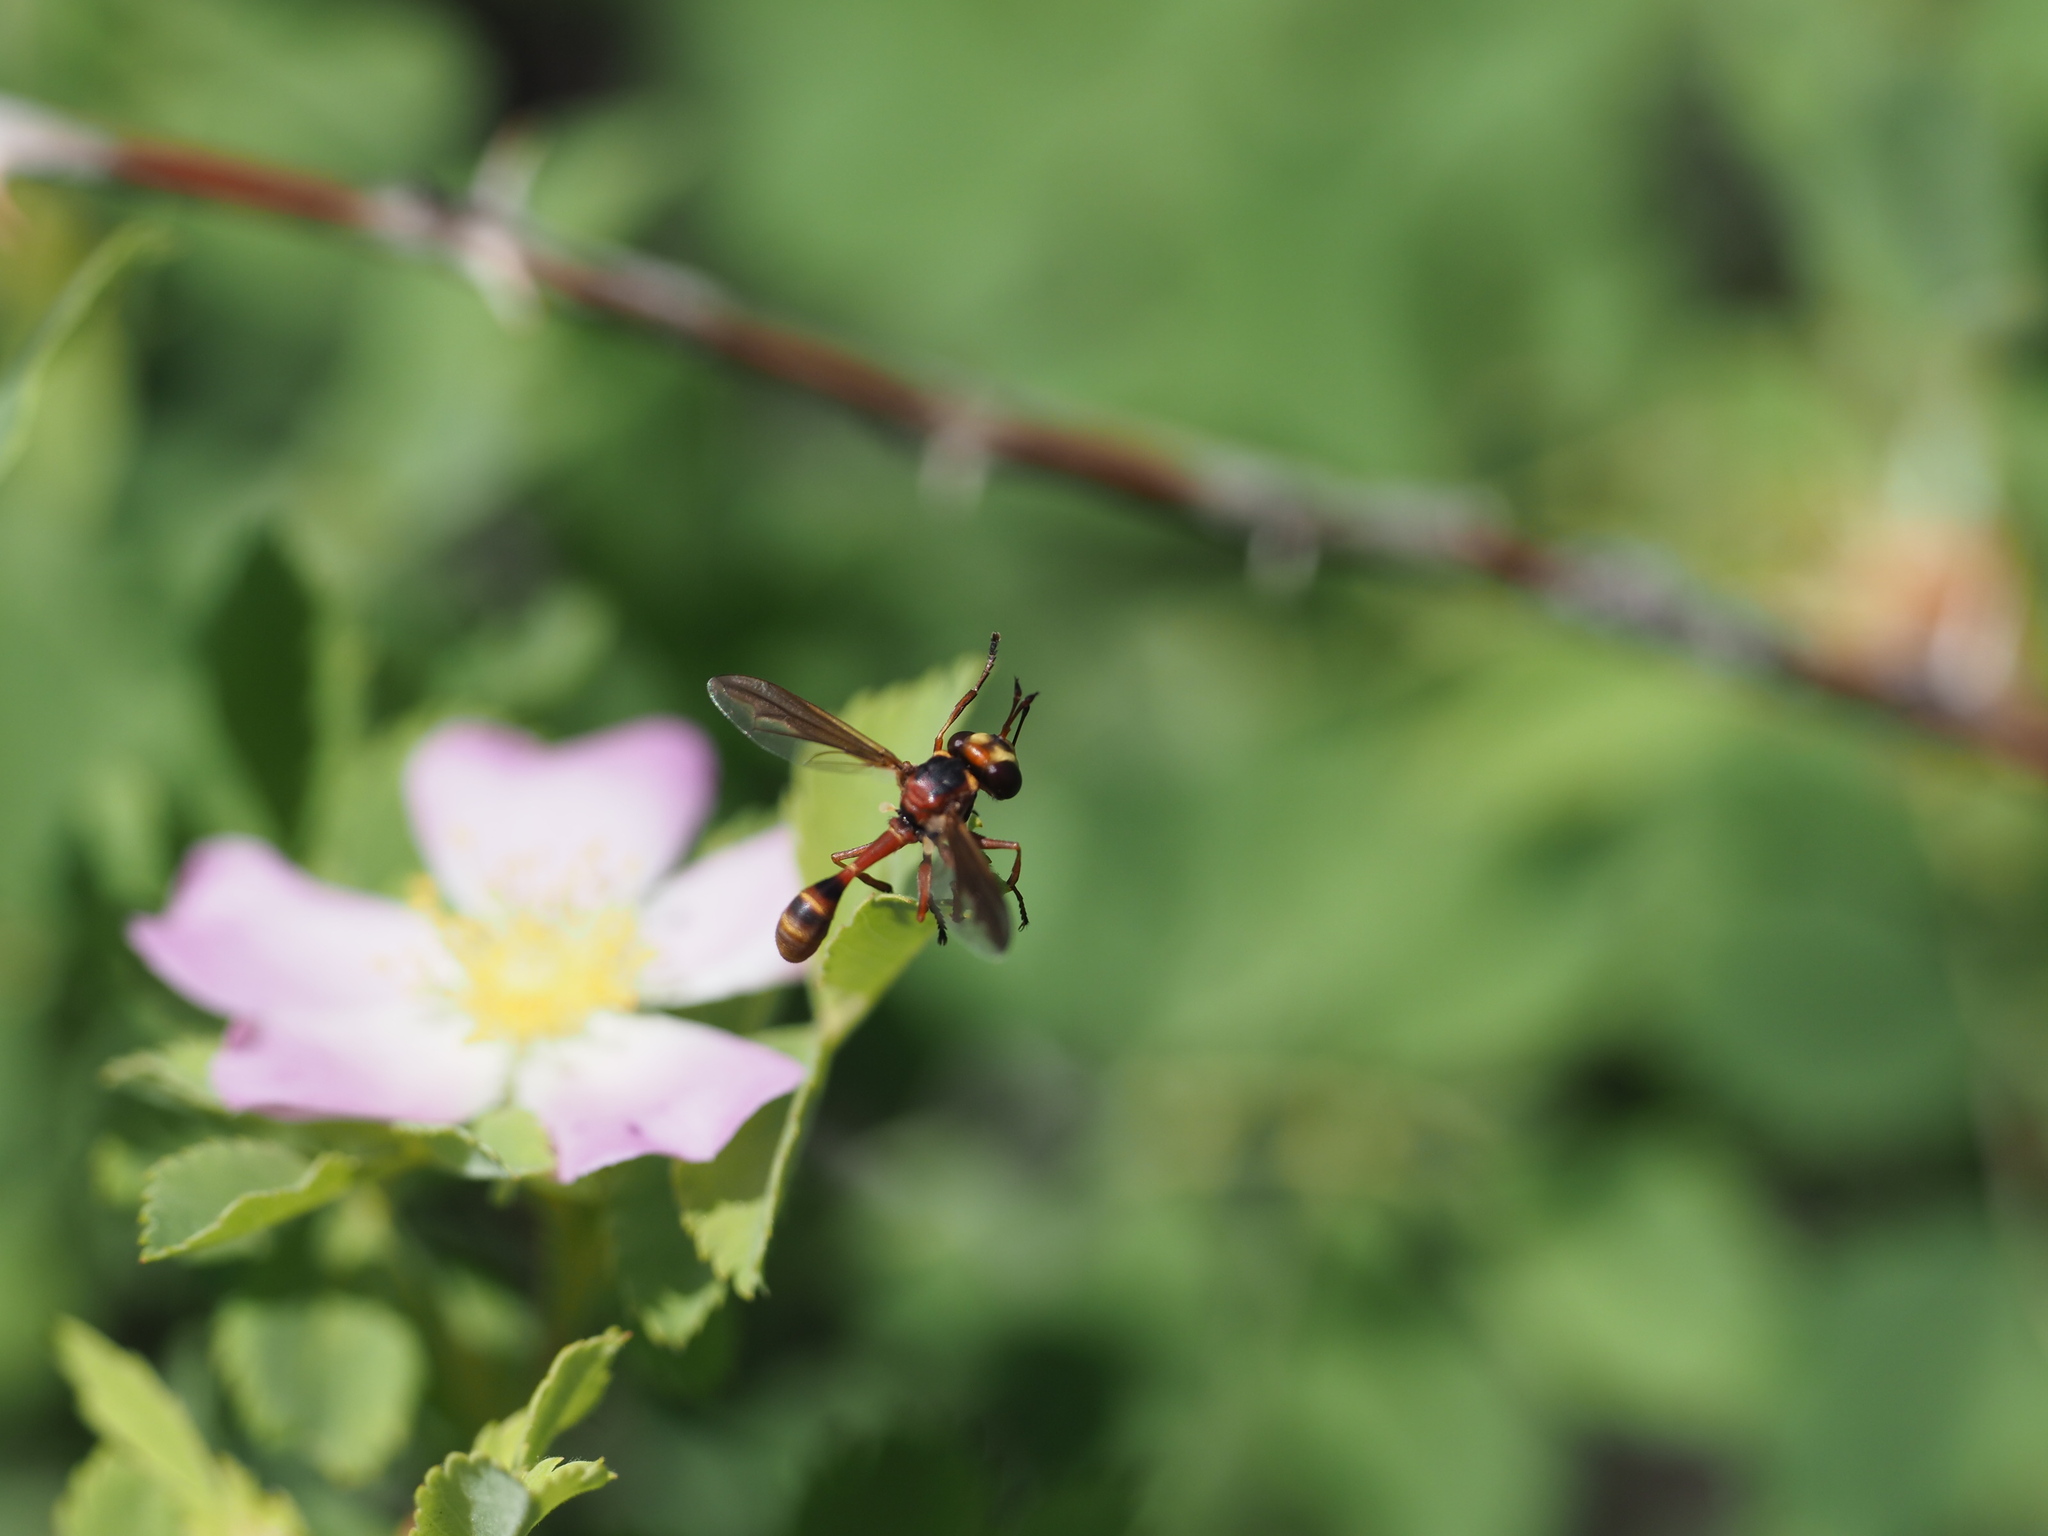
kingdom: Animalia
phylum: Arthropoda
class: Insecta
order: Diptera
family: Conopidae
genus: Physocephala
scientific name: Physocephala texana
